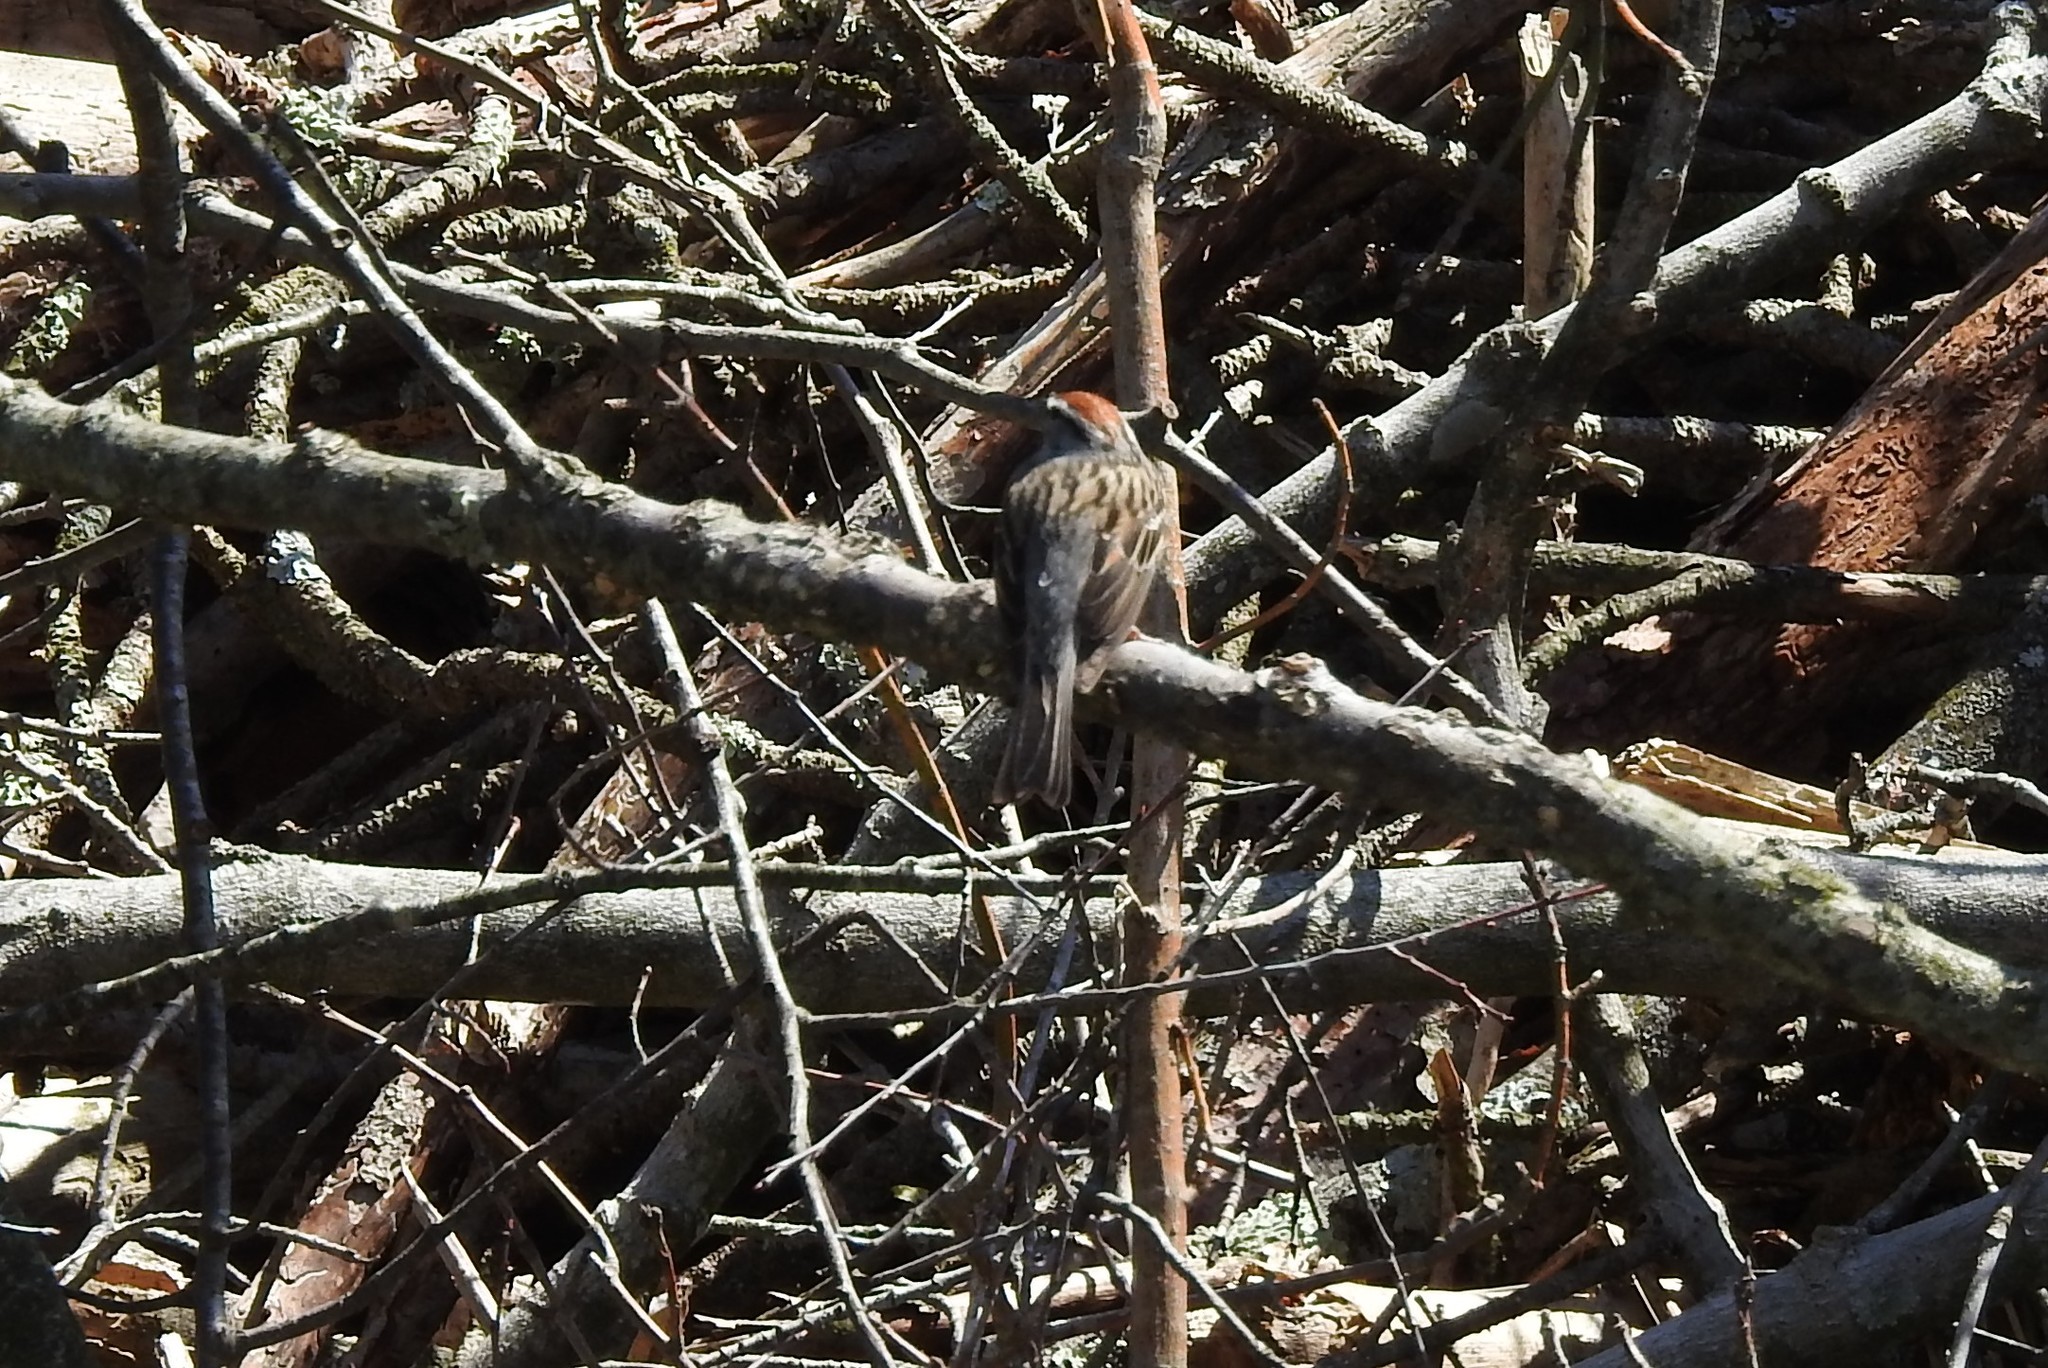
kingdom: Animalia
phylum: Chordata
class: Aves
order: Passeriformes
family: Passerellidae
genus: Spizella
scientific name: Spizella passerina
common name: Chipping sparrow
